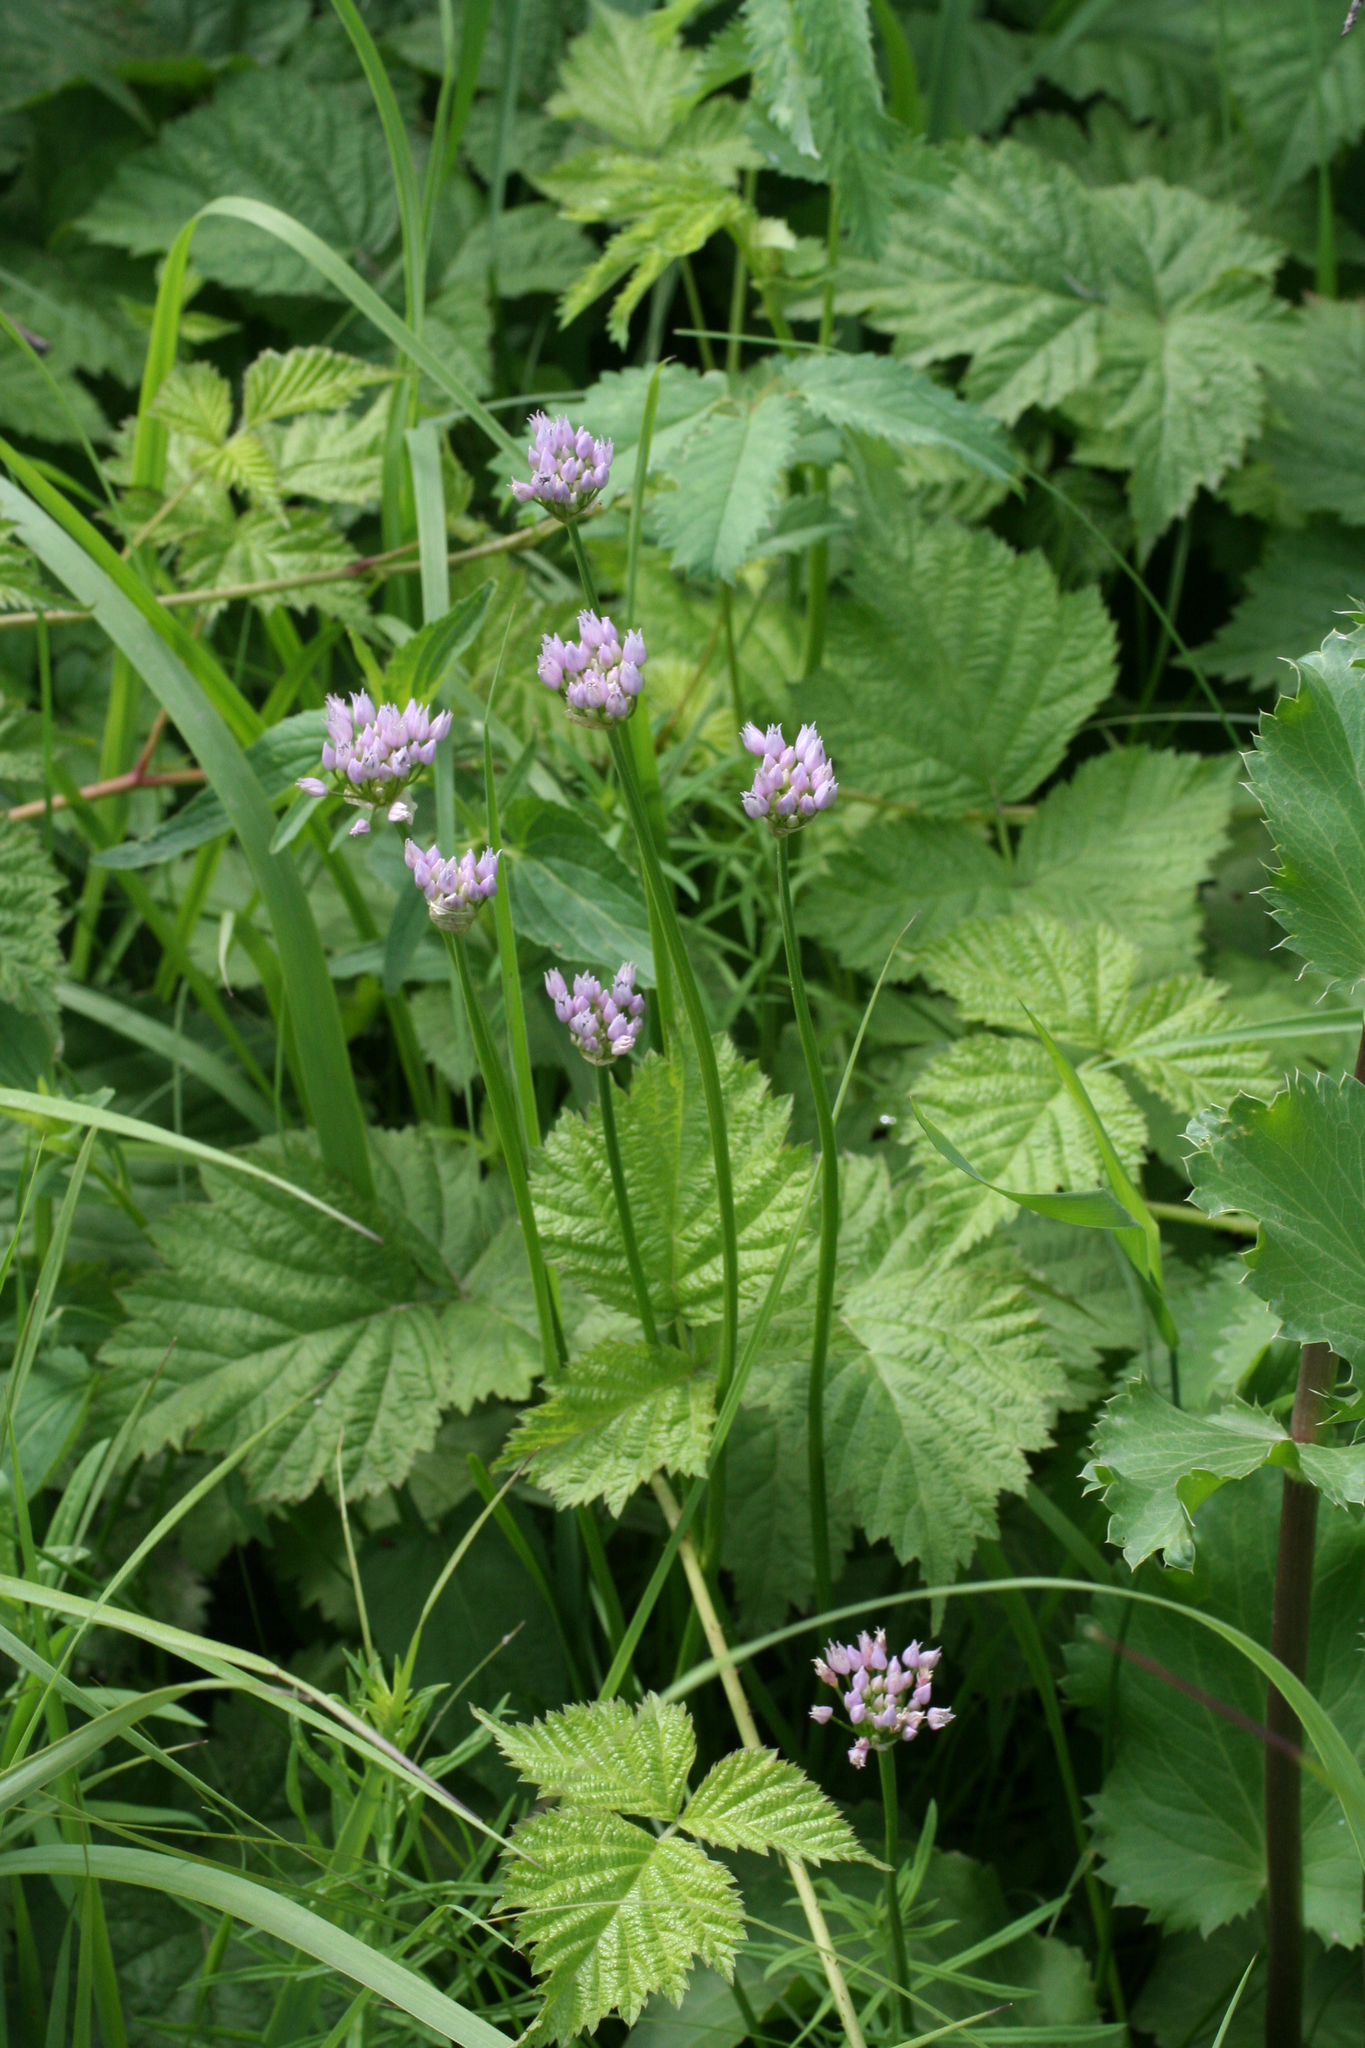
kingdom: Plantae
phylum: Tracheophyta
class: Liliopsida
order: Asparagales
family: Amaryllidaceae
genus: Allium
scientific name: Allium schoenoprasum
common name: Chives
